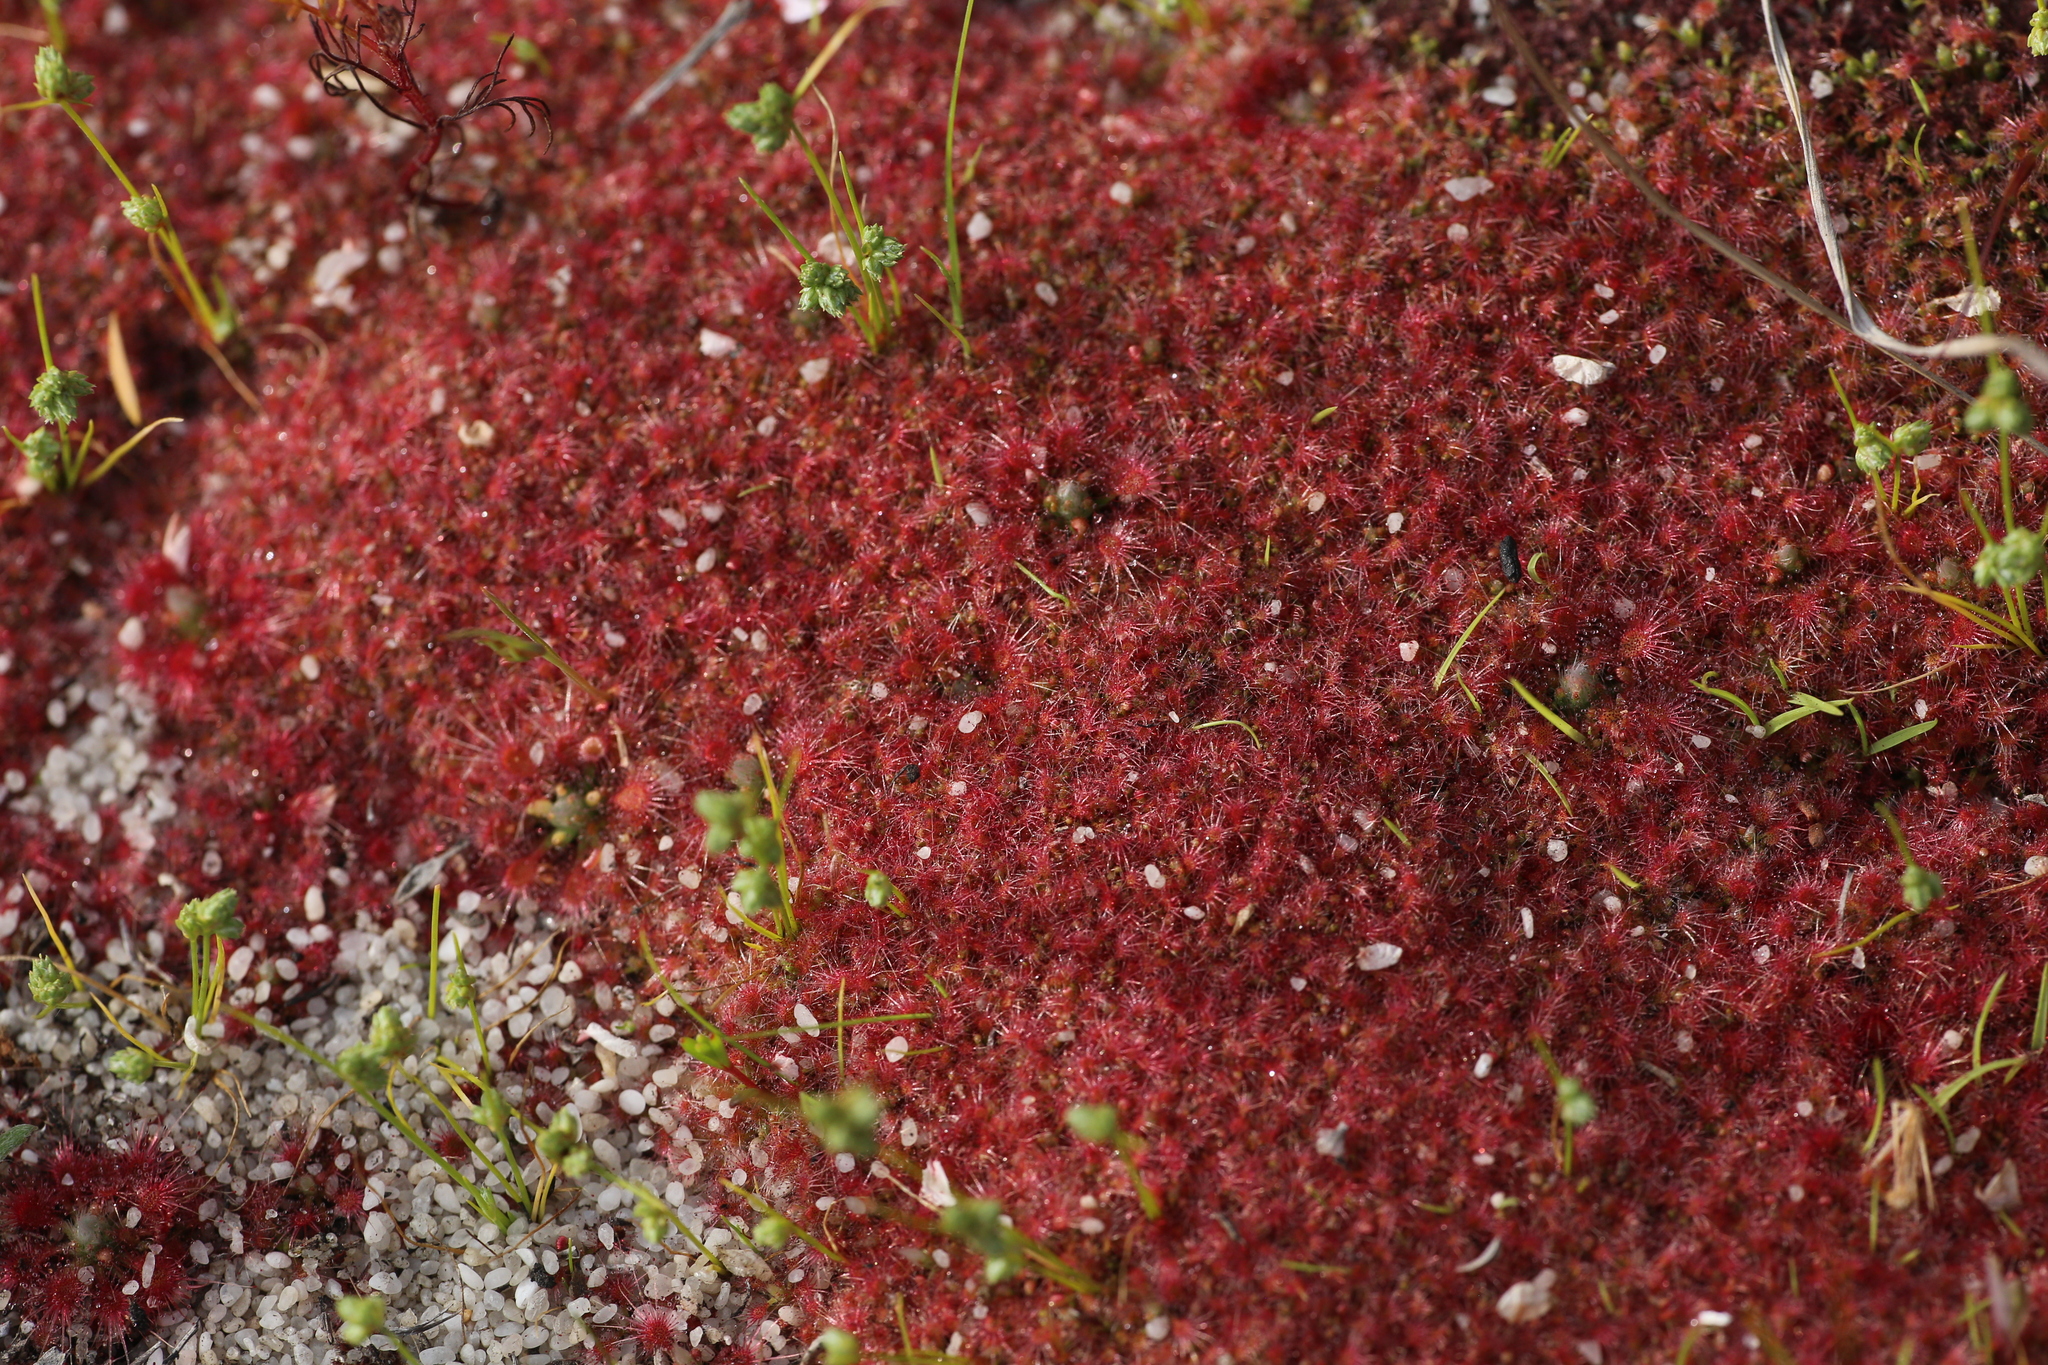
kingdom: Plantae
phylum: Tracheophyta
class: Magnoliopsida
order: Caryophyllales
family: Droseraceae
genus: Drosera
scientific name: Drosera nitidula
